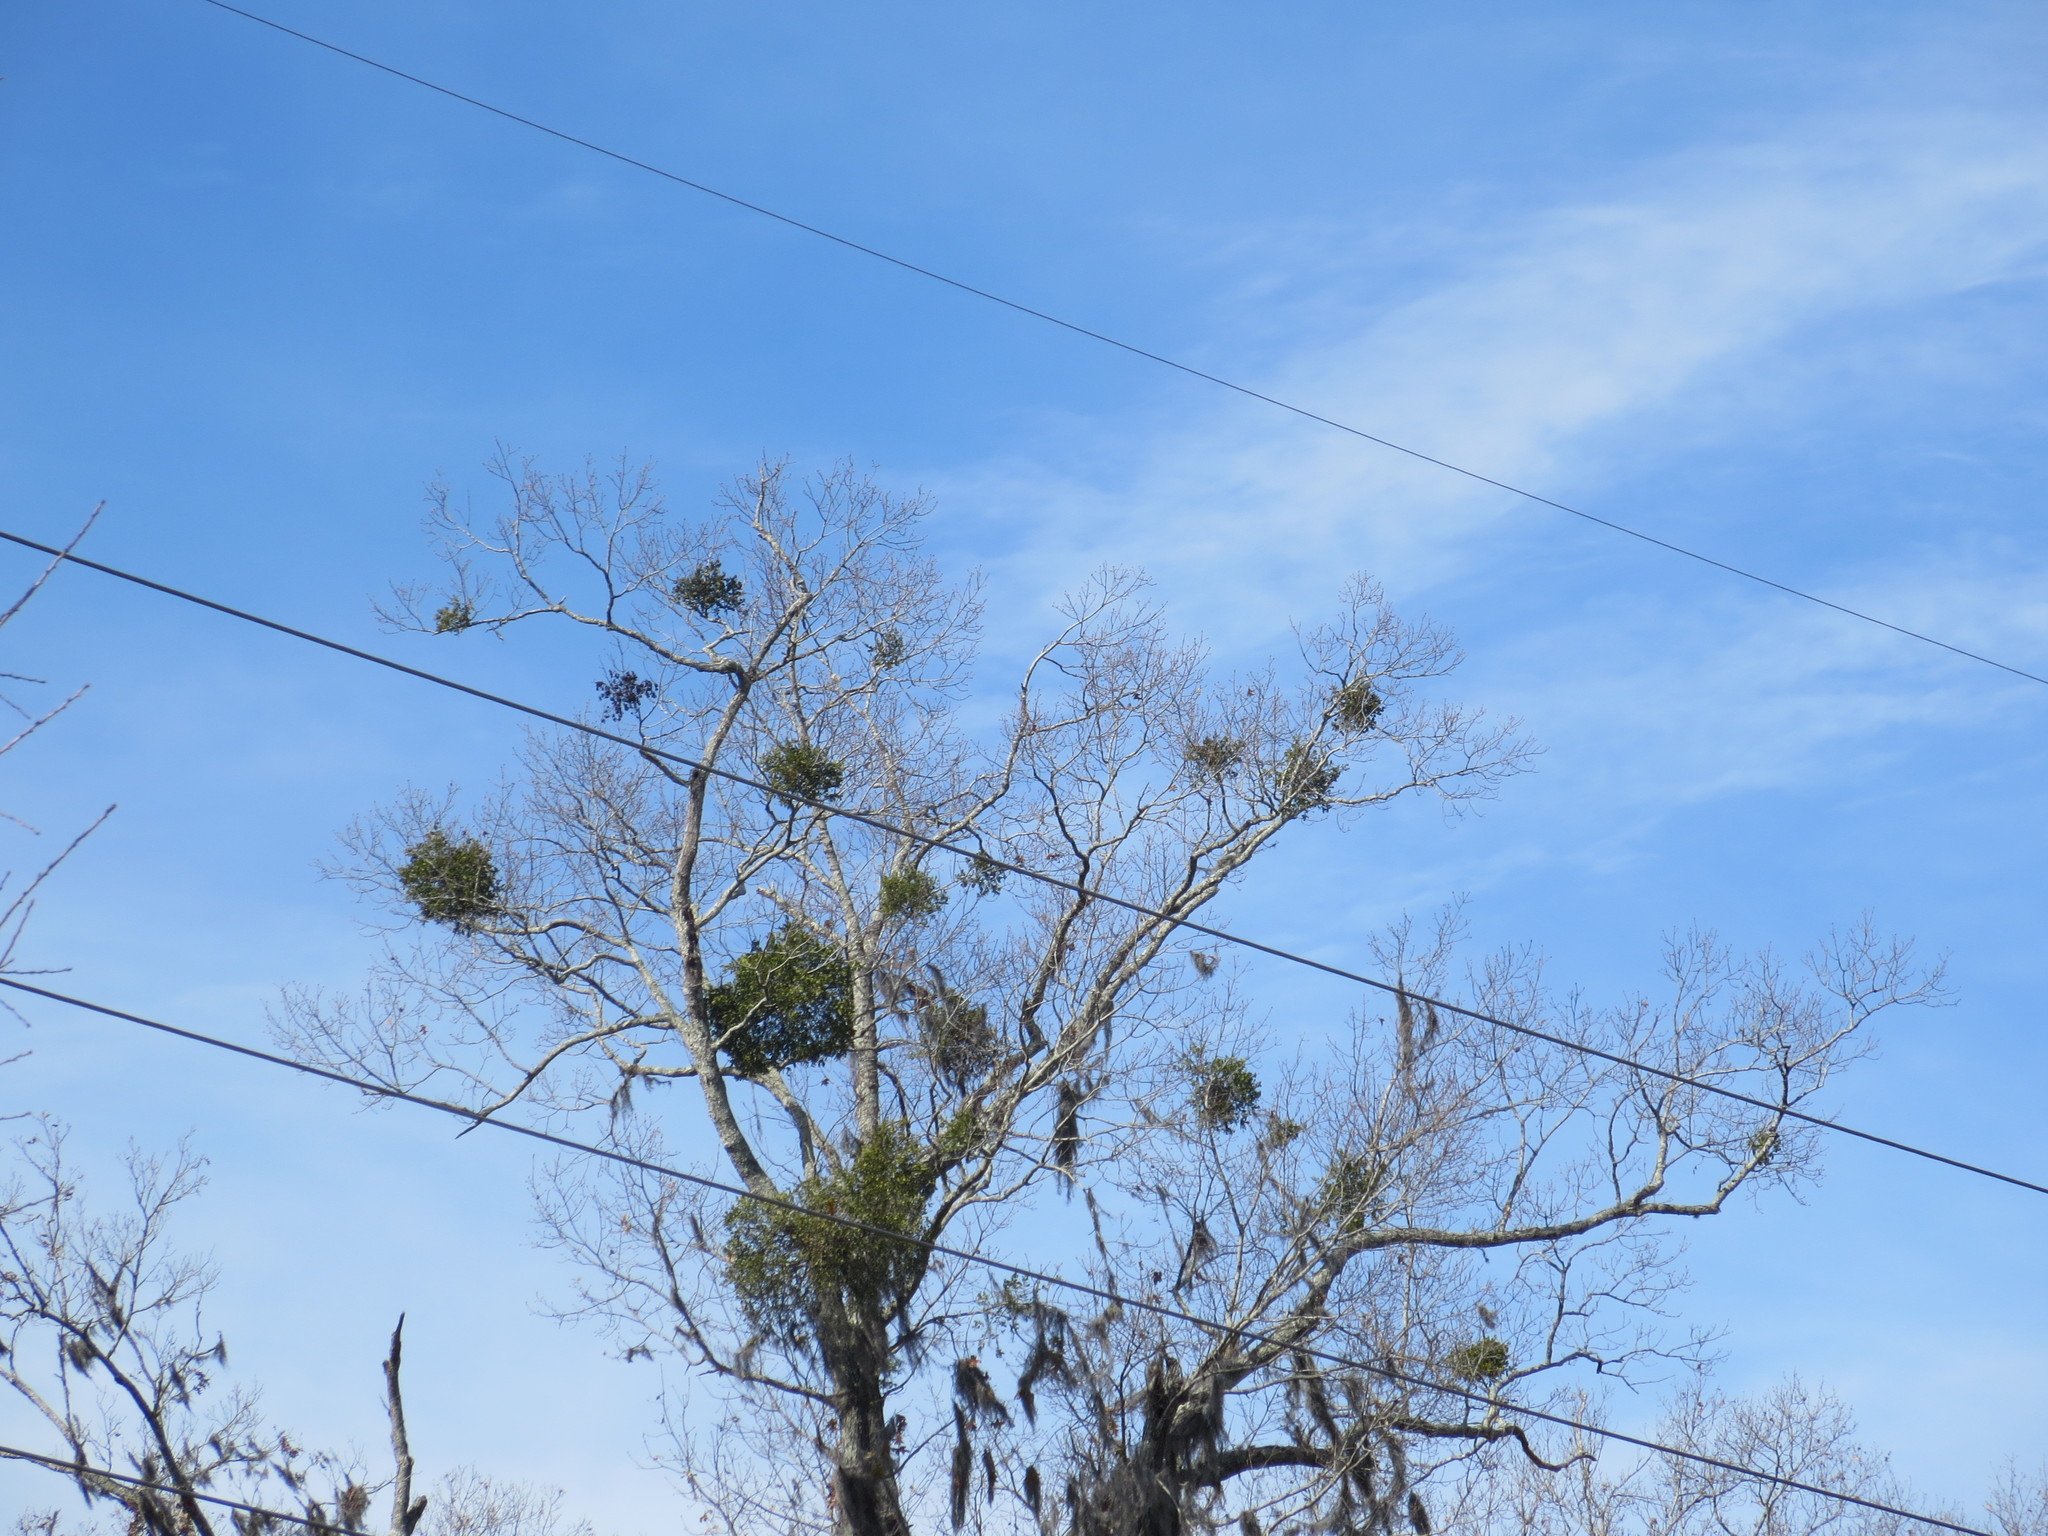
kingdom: Plantae
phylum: Tracheophyta
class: Magnoliopsida
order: Santalales
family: Viscaceae
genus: Phoradendron
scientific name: Phoradendron leucarpum
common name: Pacific mistletoe
